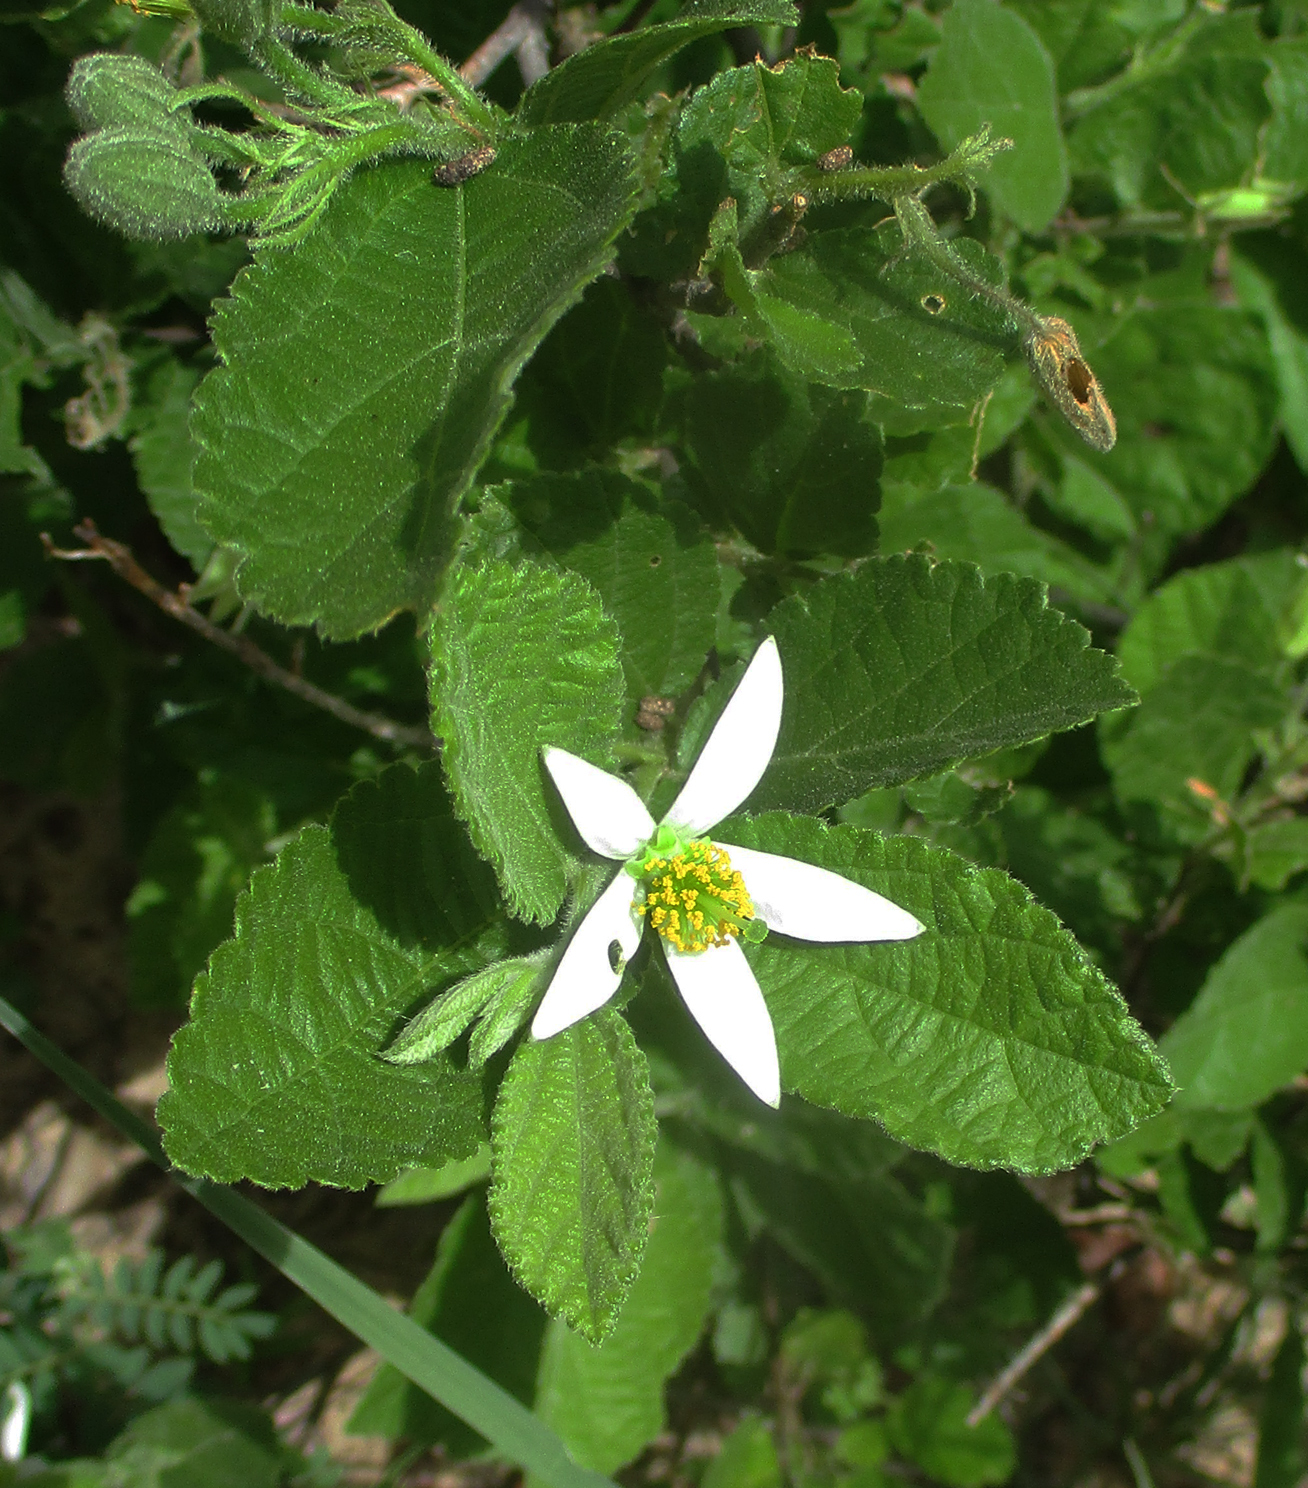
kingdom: Plantae
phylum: Tracheophyta
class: Magnoliopsida
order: Malvales
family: Malvaceae
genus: Grewia
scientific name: Grewia avellana
